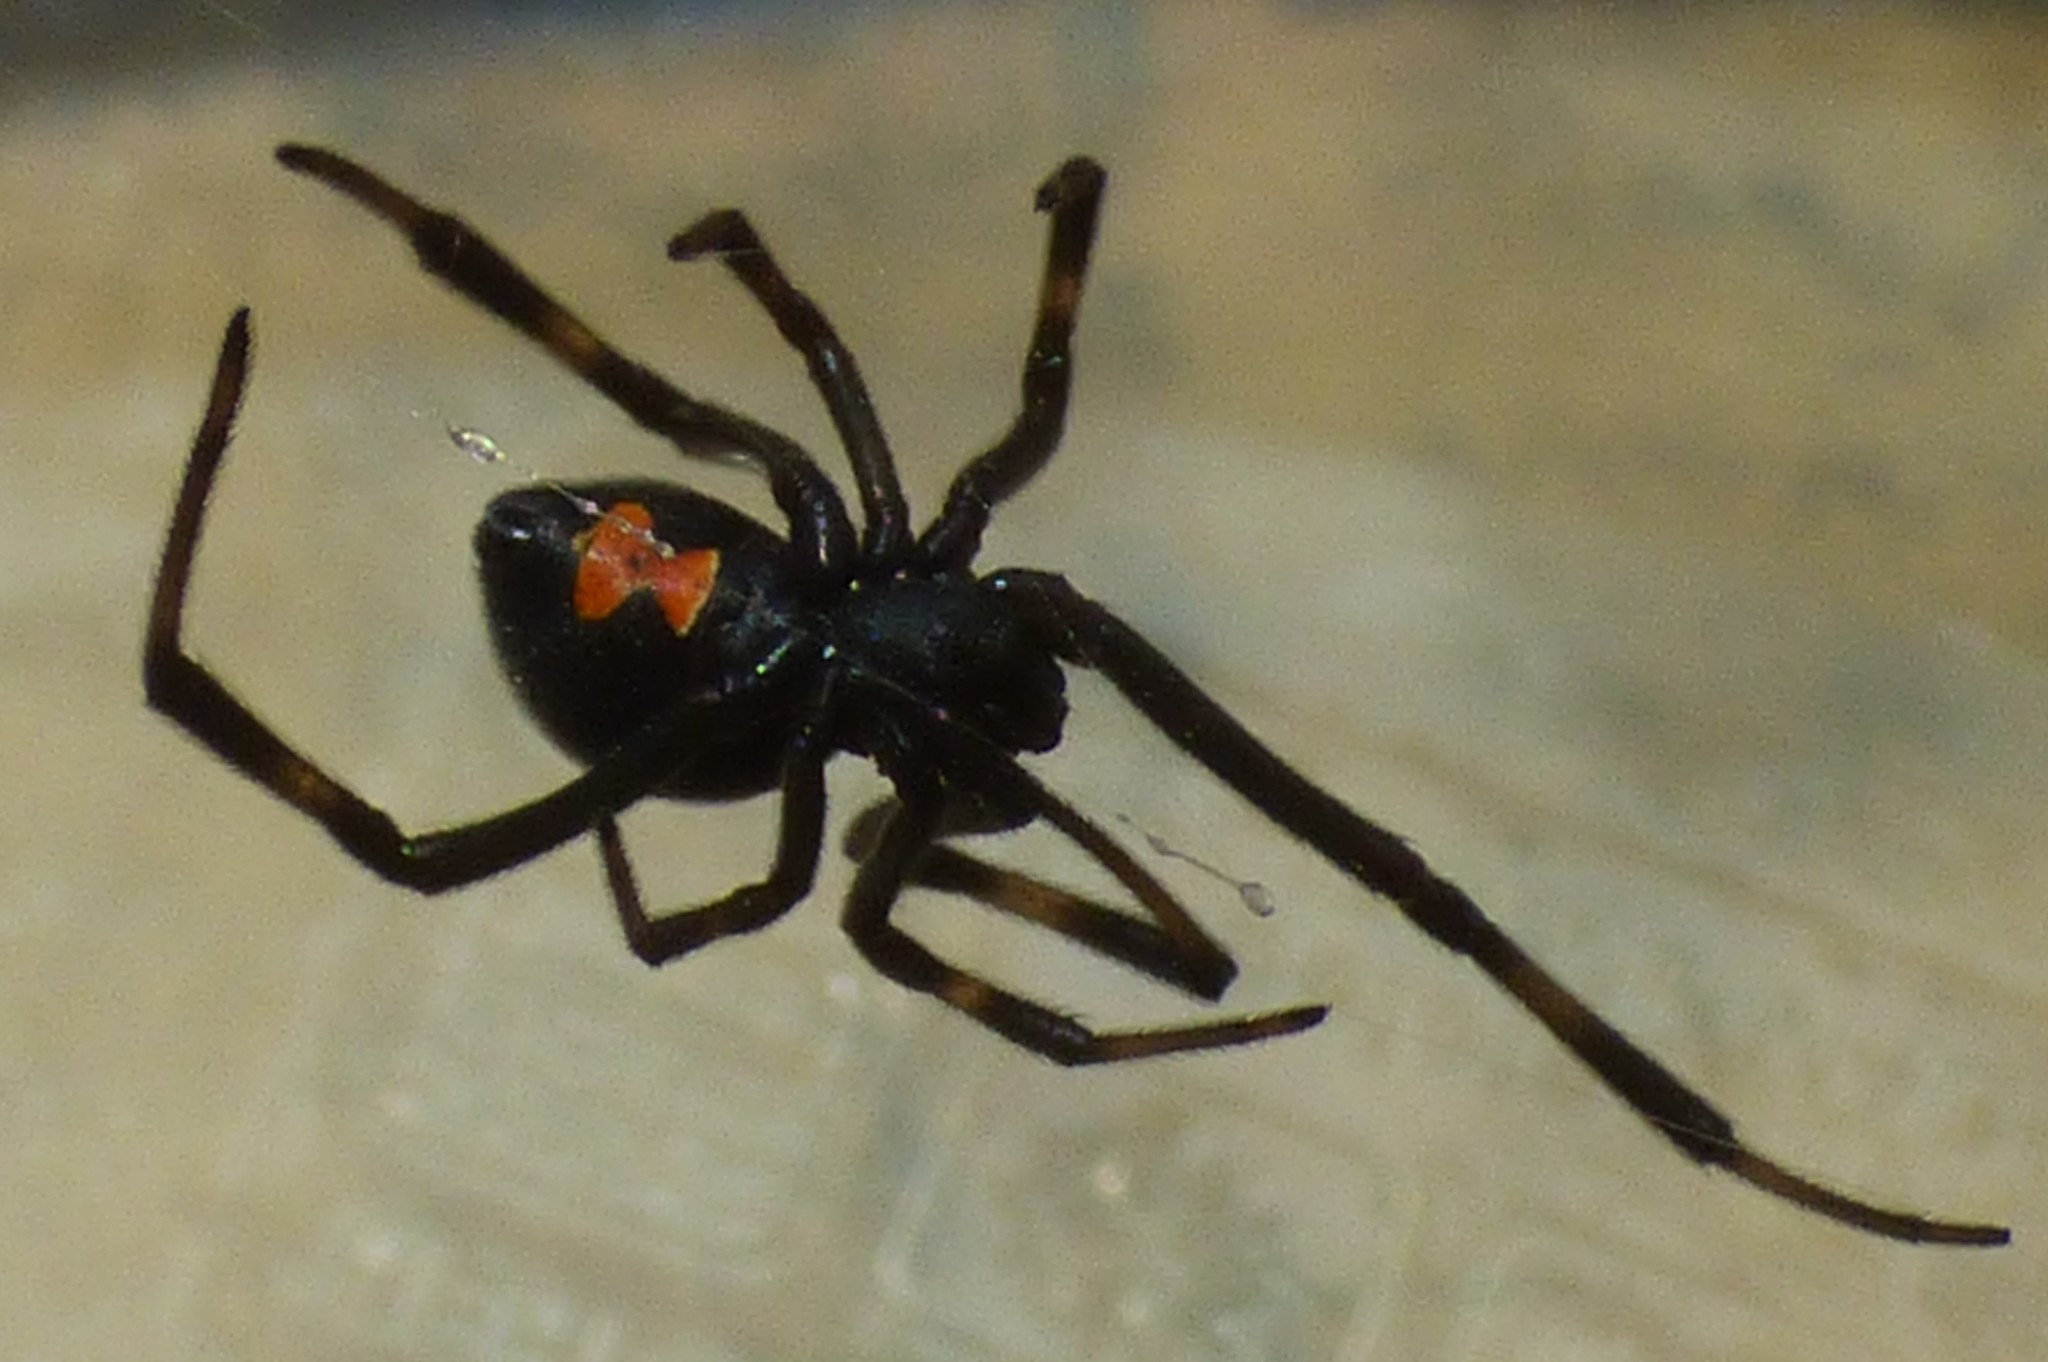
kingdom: Animalia
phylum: Arthropoda
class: Arachnida
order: Araneae
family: Theridiidae
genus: Latrodectus
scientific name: Latrodectus mactans
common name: Cobweb spiders
